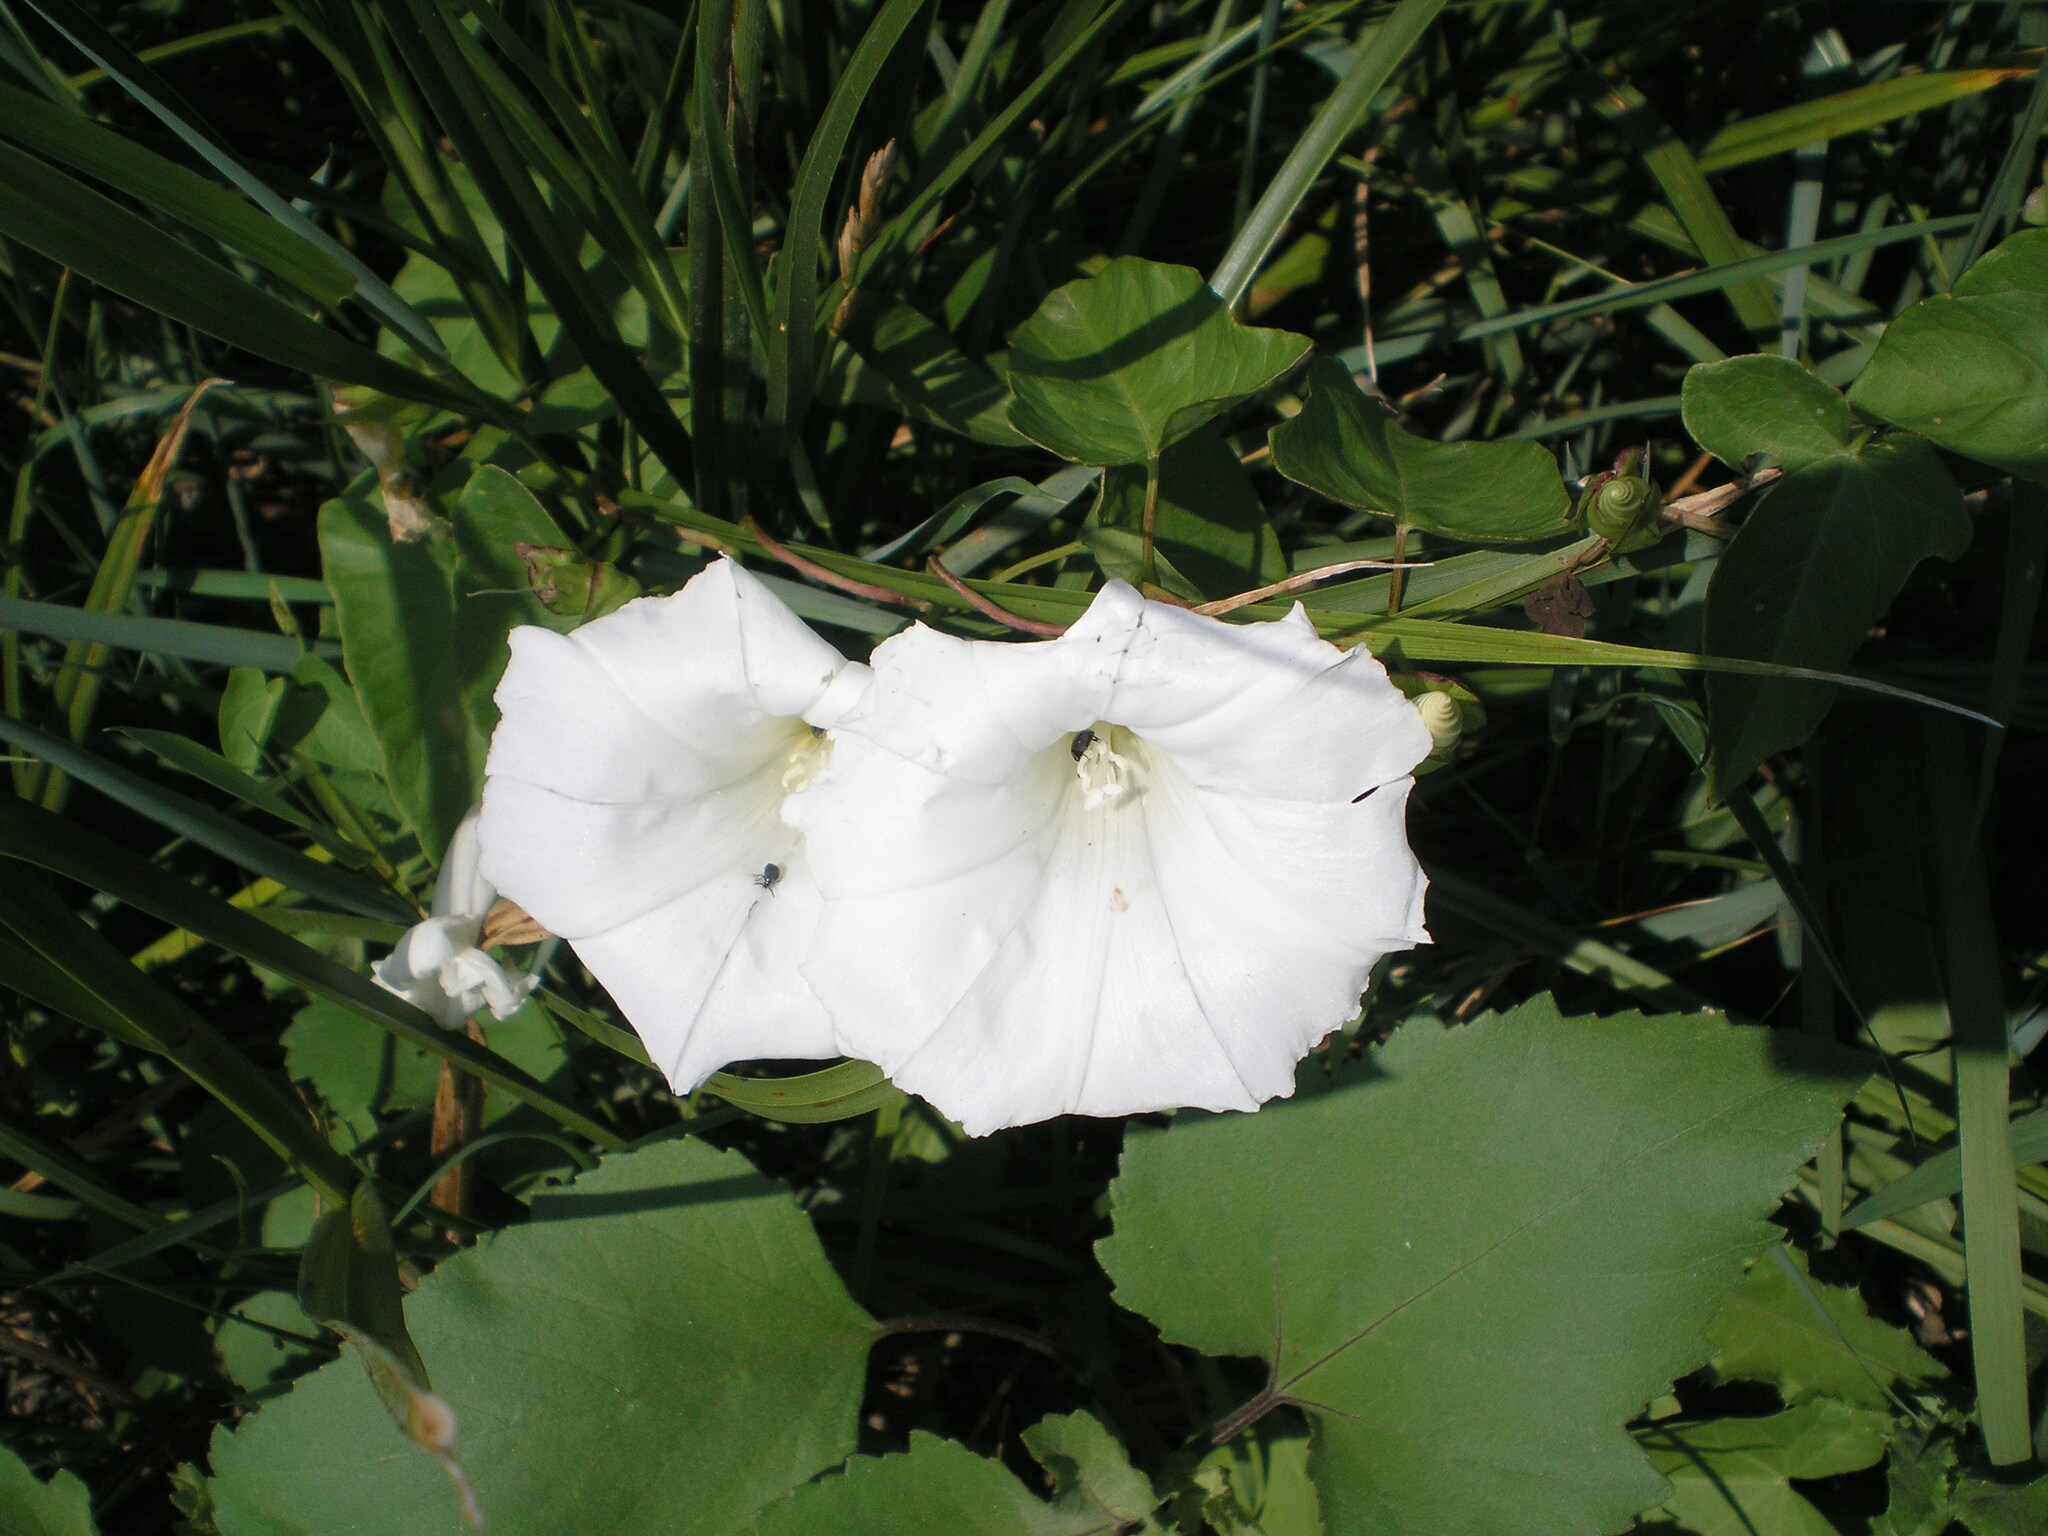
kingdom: Plantae
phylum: Tracheophyta
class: Magnoliopsida
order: Solanales
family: Convolvulaceae
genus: Calystegia
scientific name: Calystegia sepium
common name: Hedge bindweed
